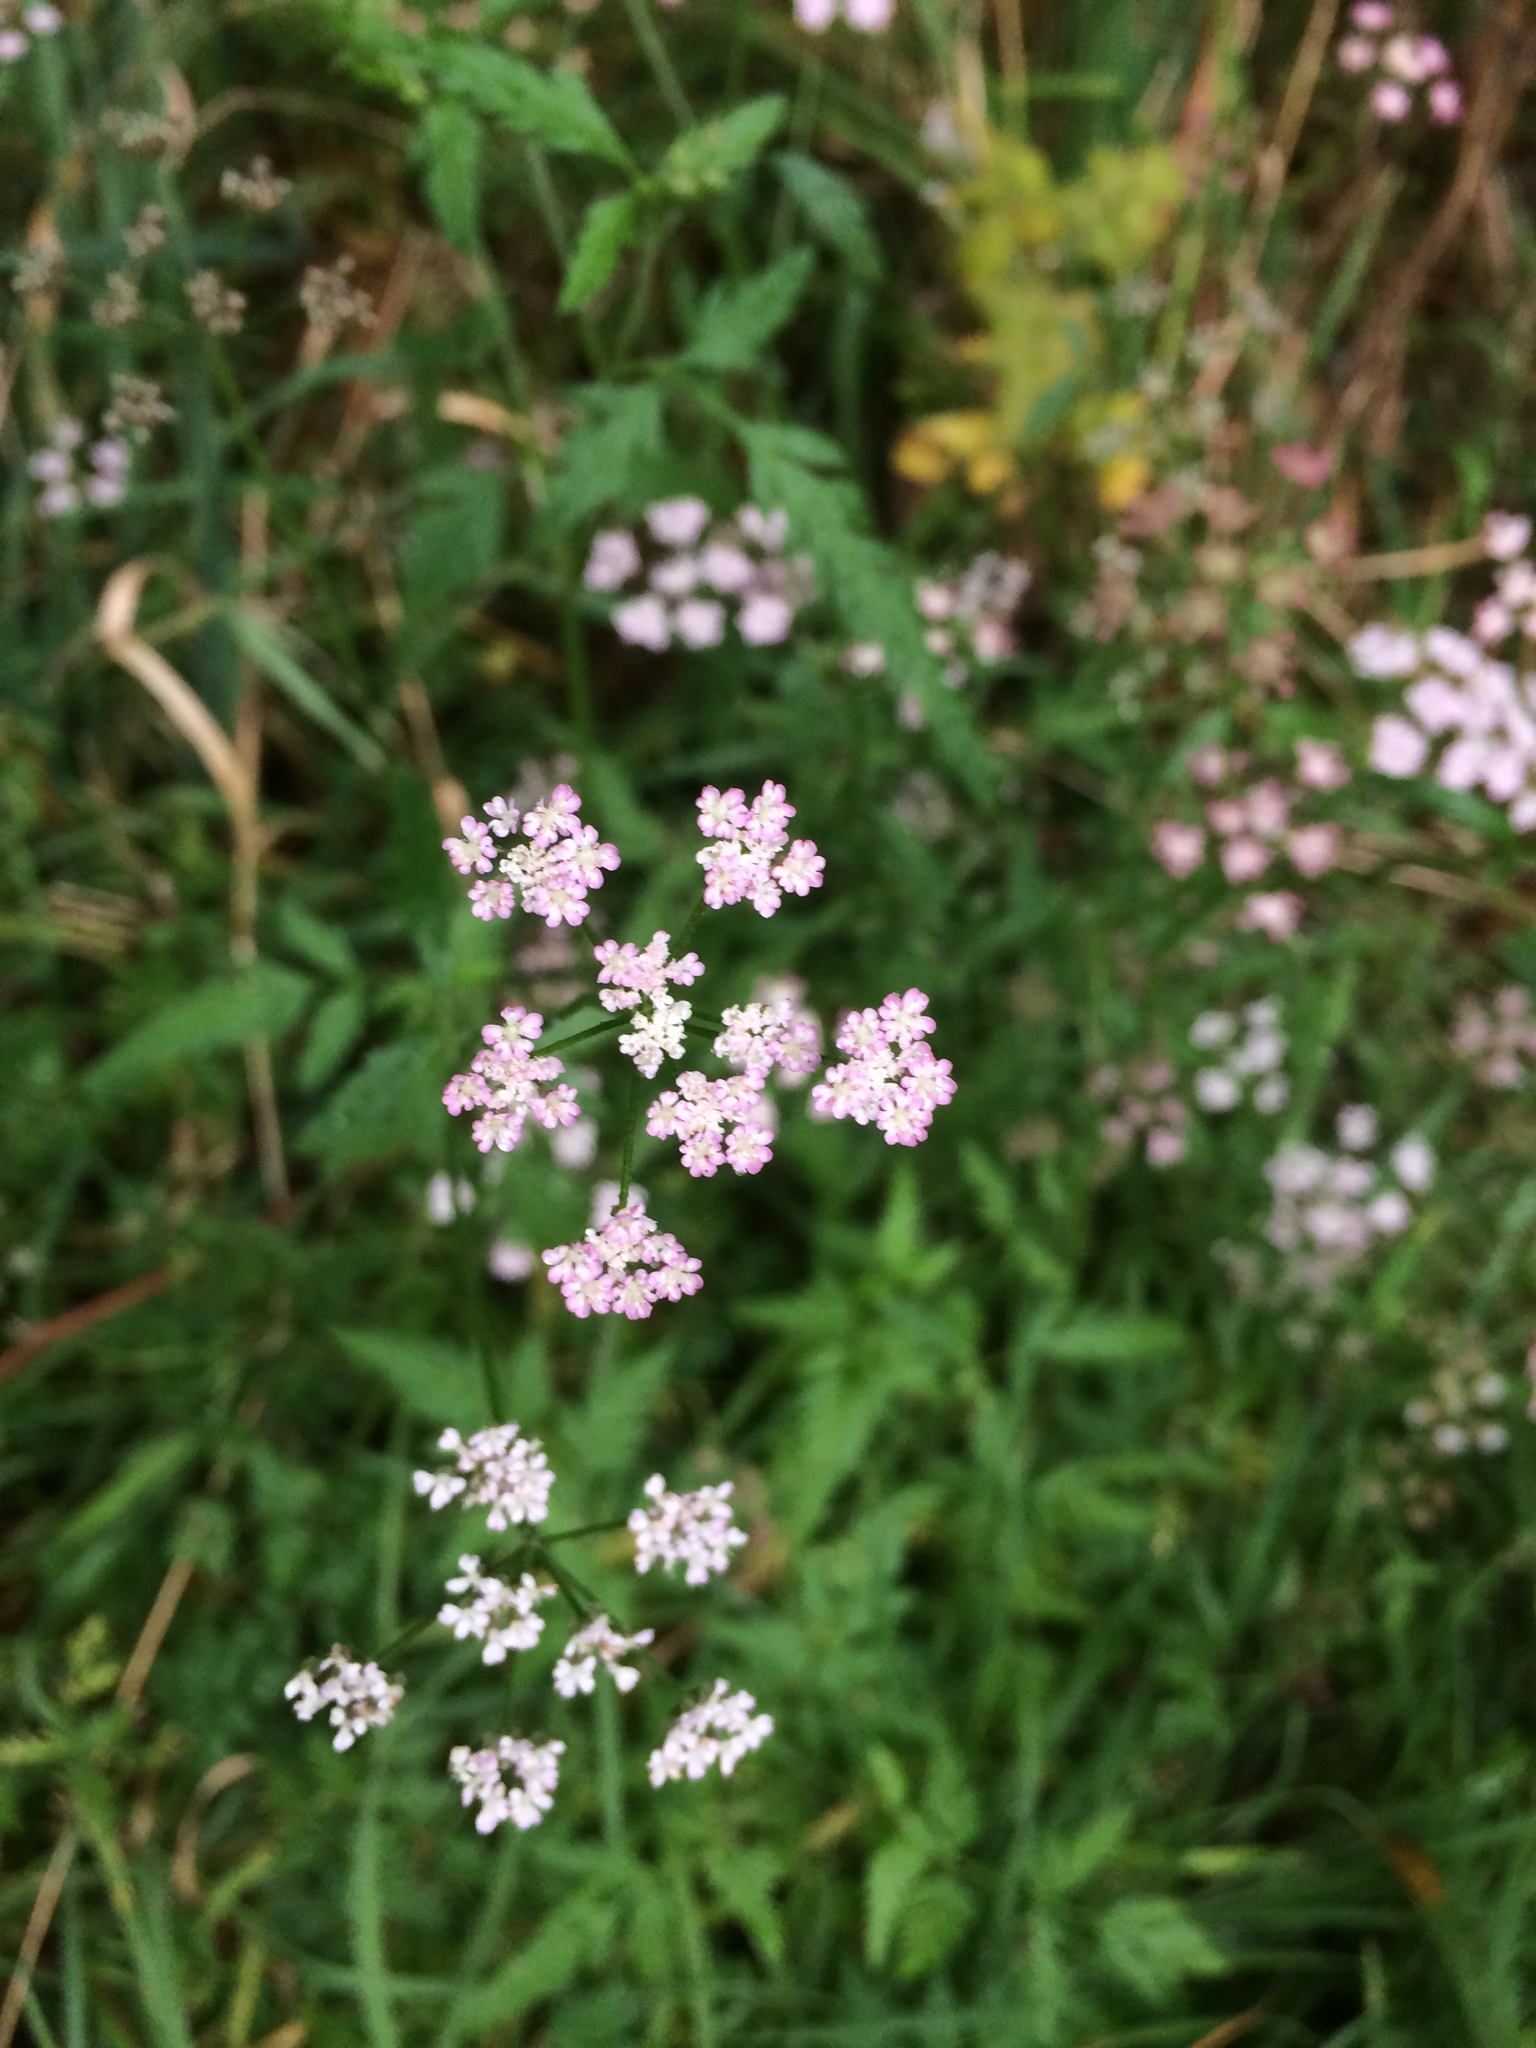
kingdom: Plantae
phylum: Tracheophyta
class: Magnoliopsida
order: Apiales
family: Apiaceae
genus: Torilis
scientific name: Torilis japonica
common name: Upright hedge-parsley
